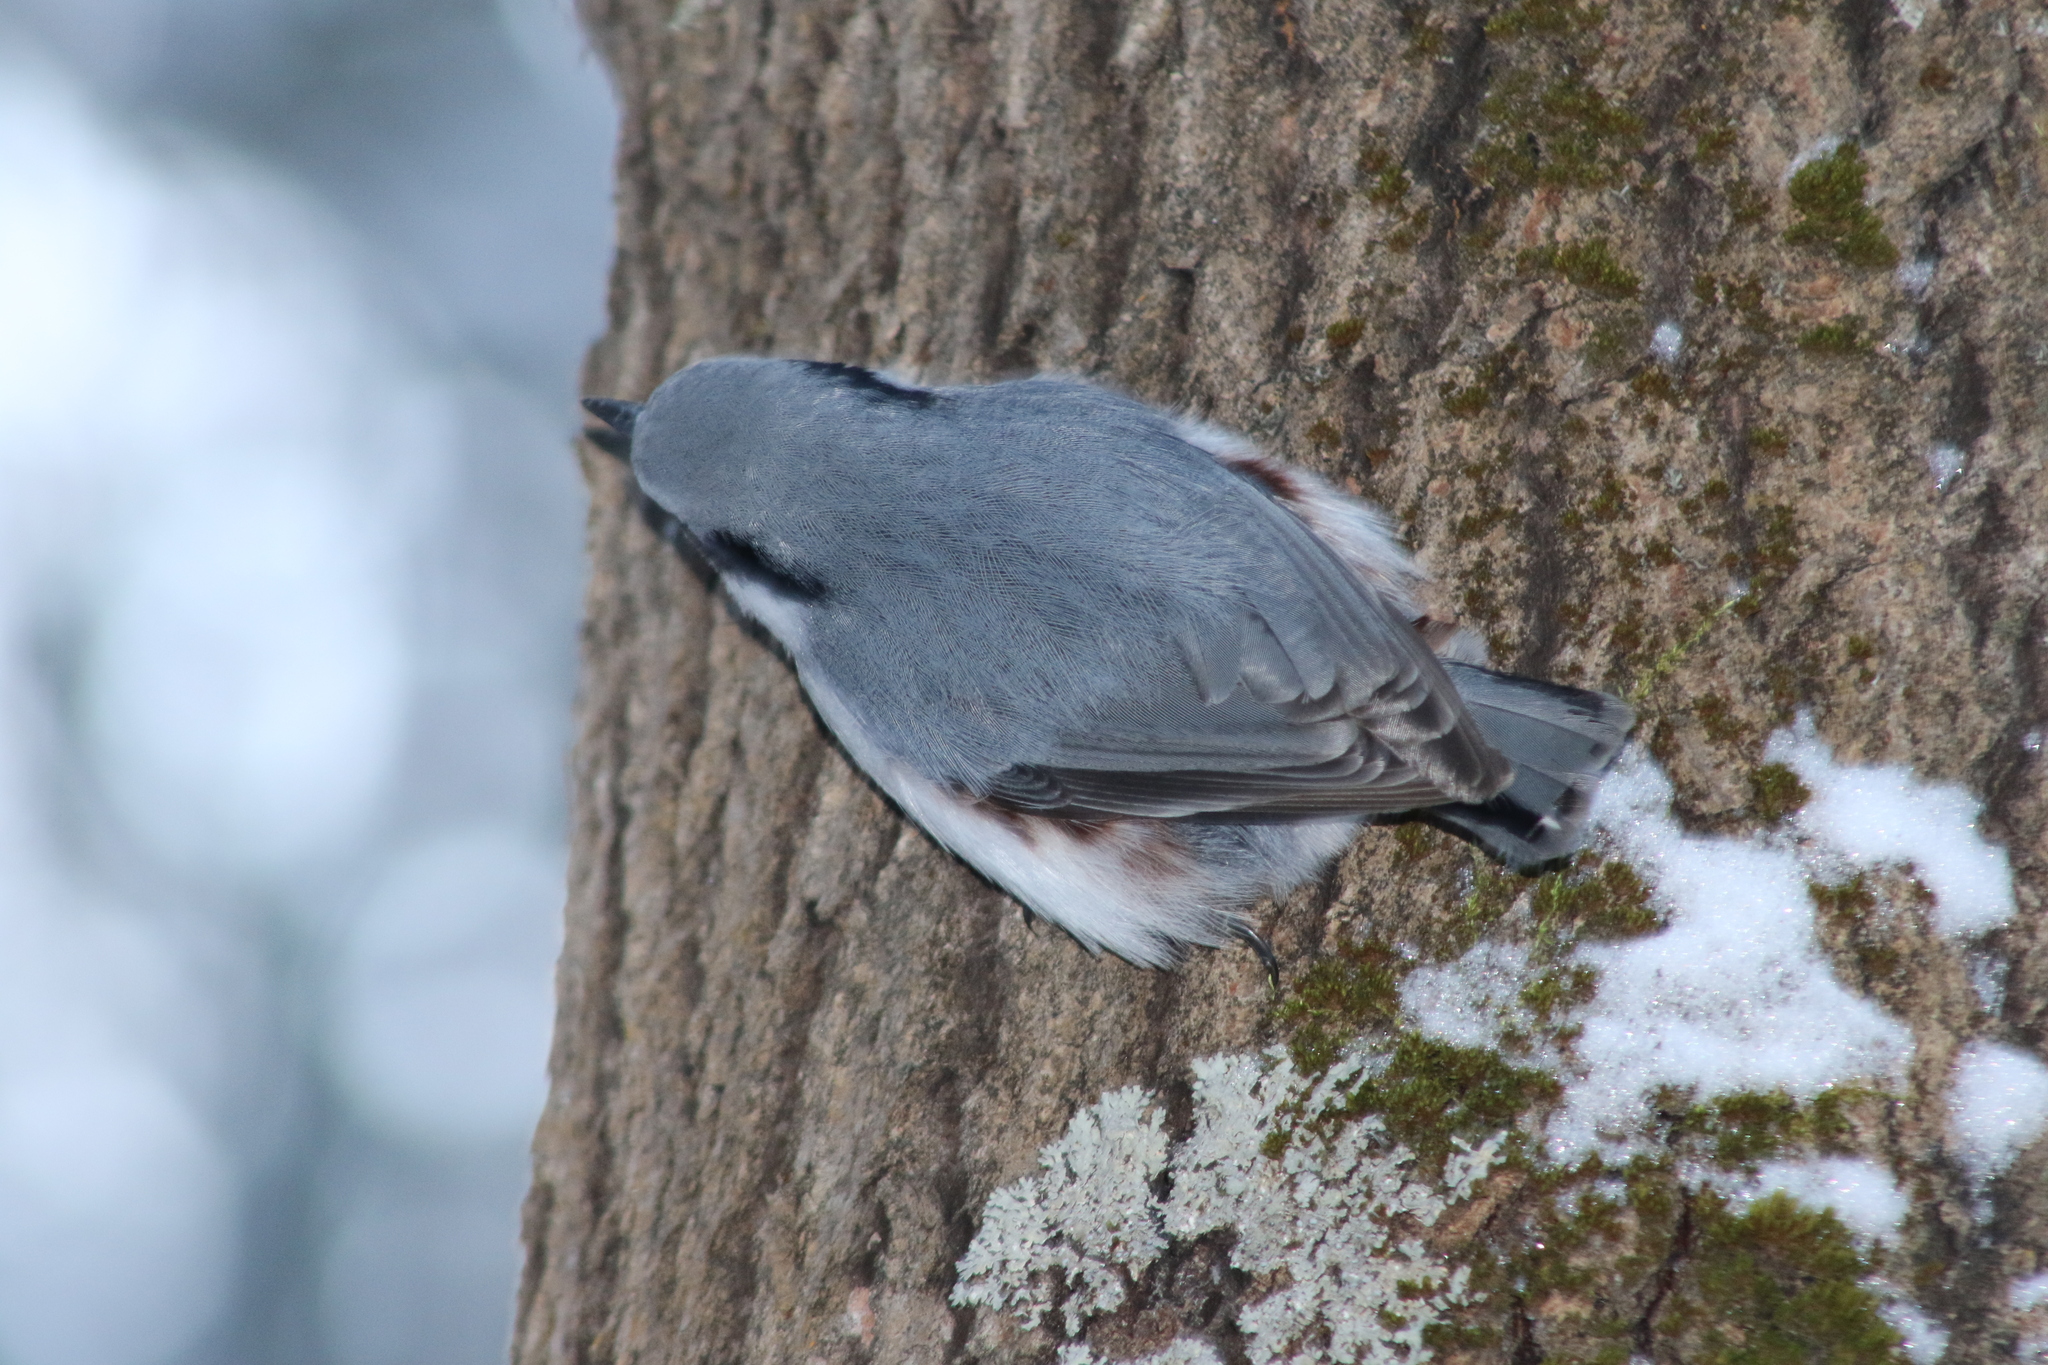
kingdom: Animalia
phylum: Chordata
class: Aves
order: Passeriformes
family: Sittidae
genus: Sitta
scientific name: Sitta europaea
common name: Eurasian nuthatch
